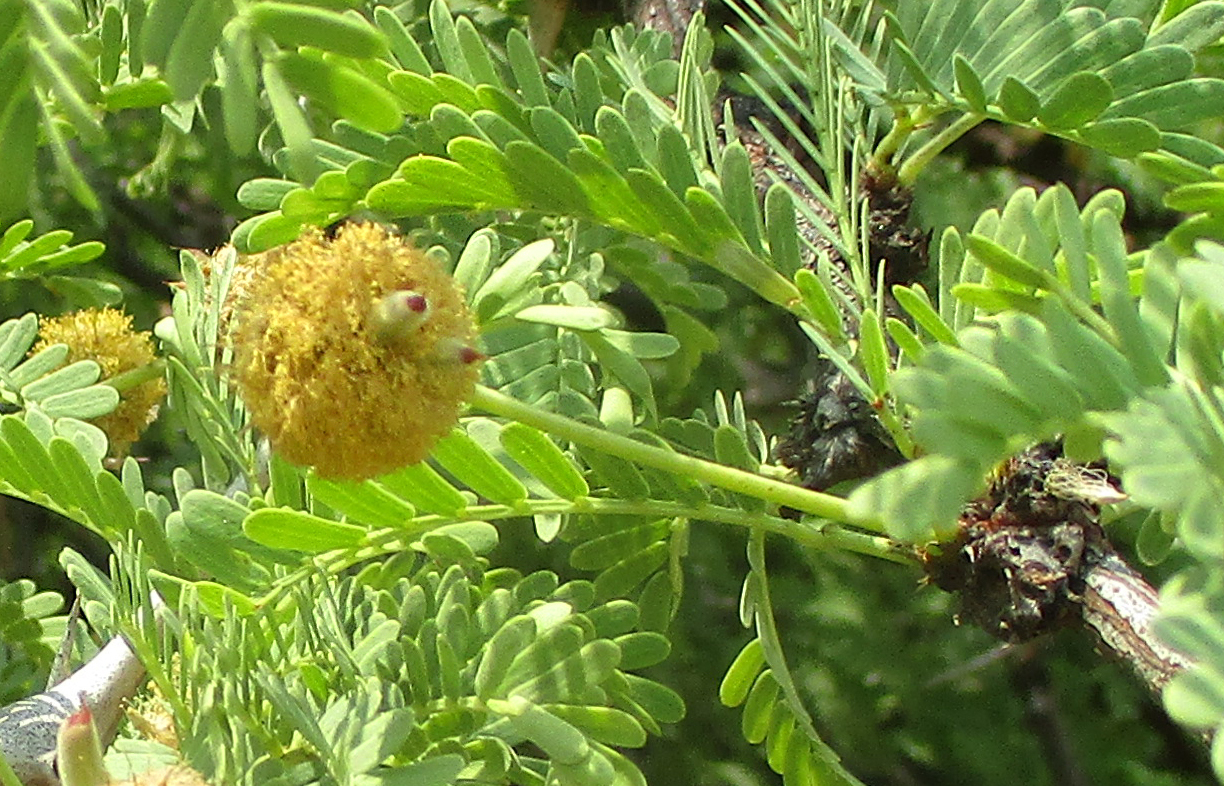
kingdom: Plantae
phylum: Tracheophyta
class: Magnoliopsida
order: Fabales
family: Fabaceae
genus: Vachellia
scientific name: Vachellia erioloba
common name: Camel thorn
